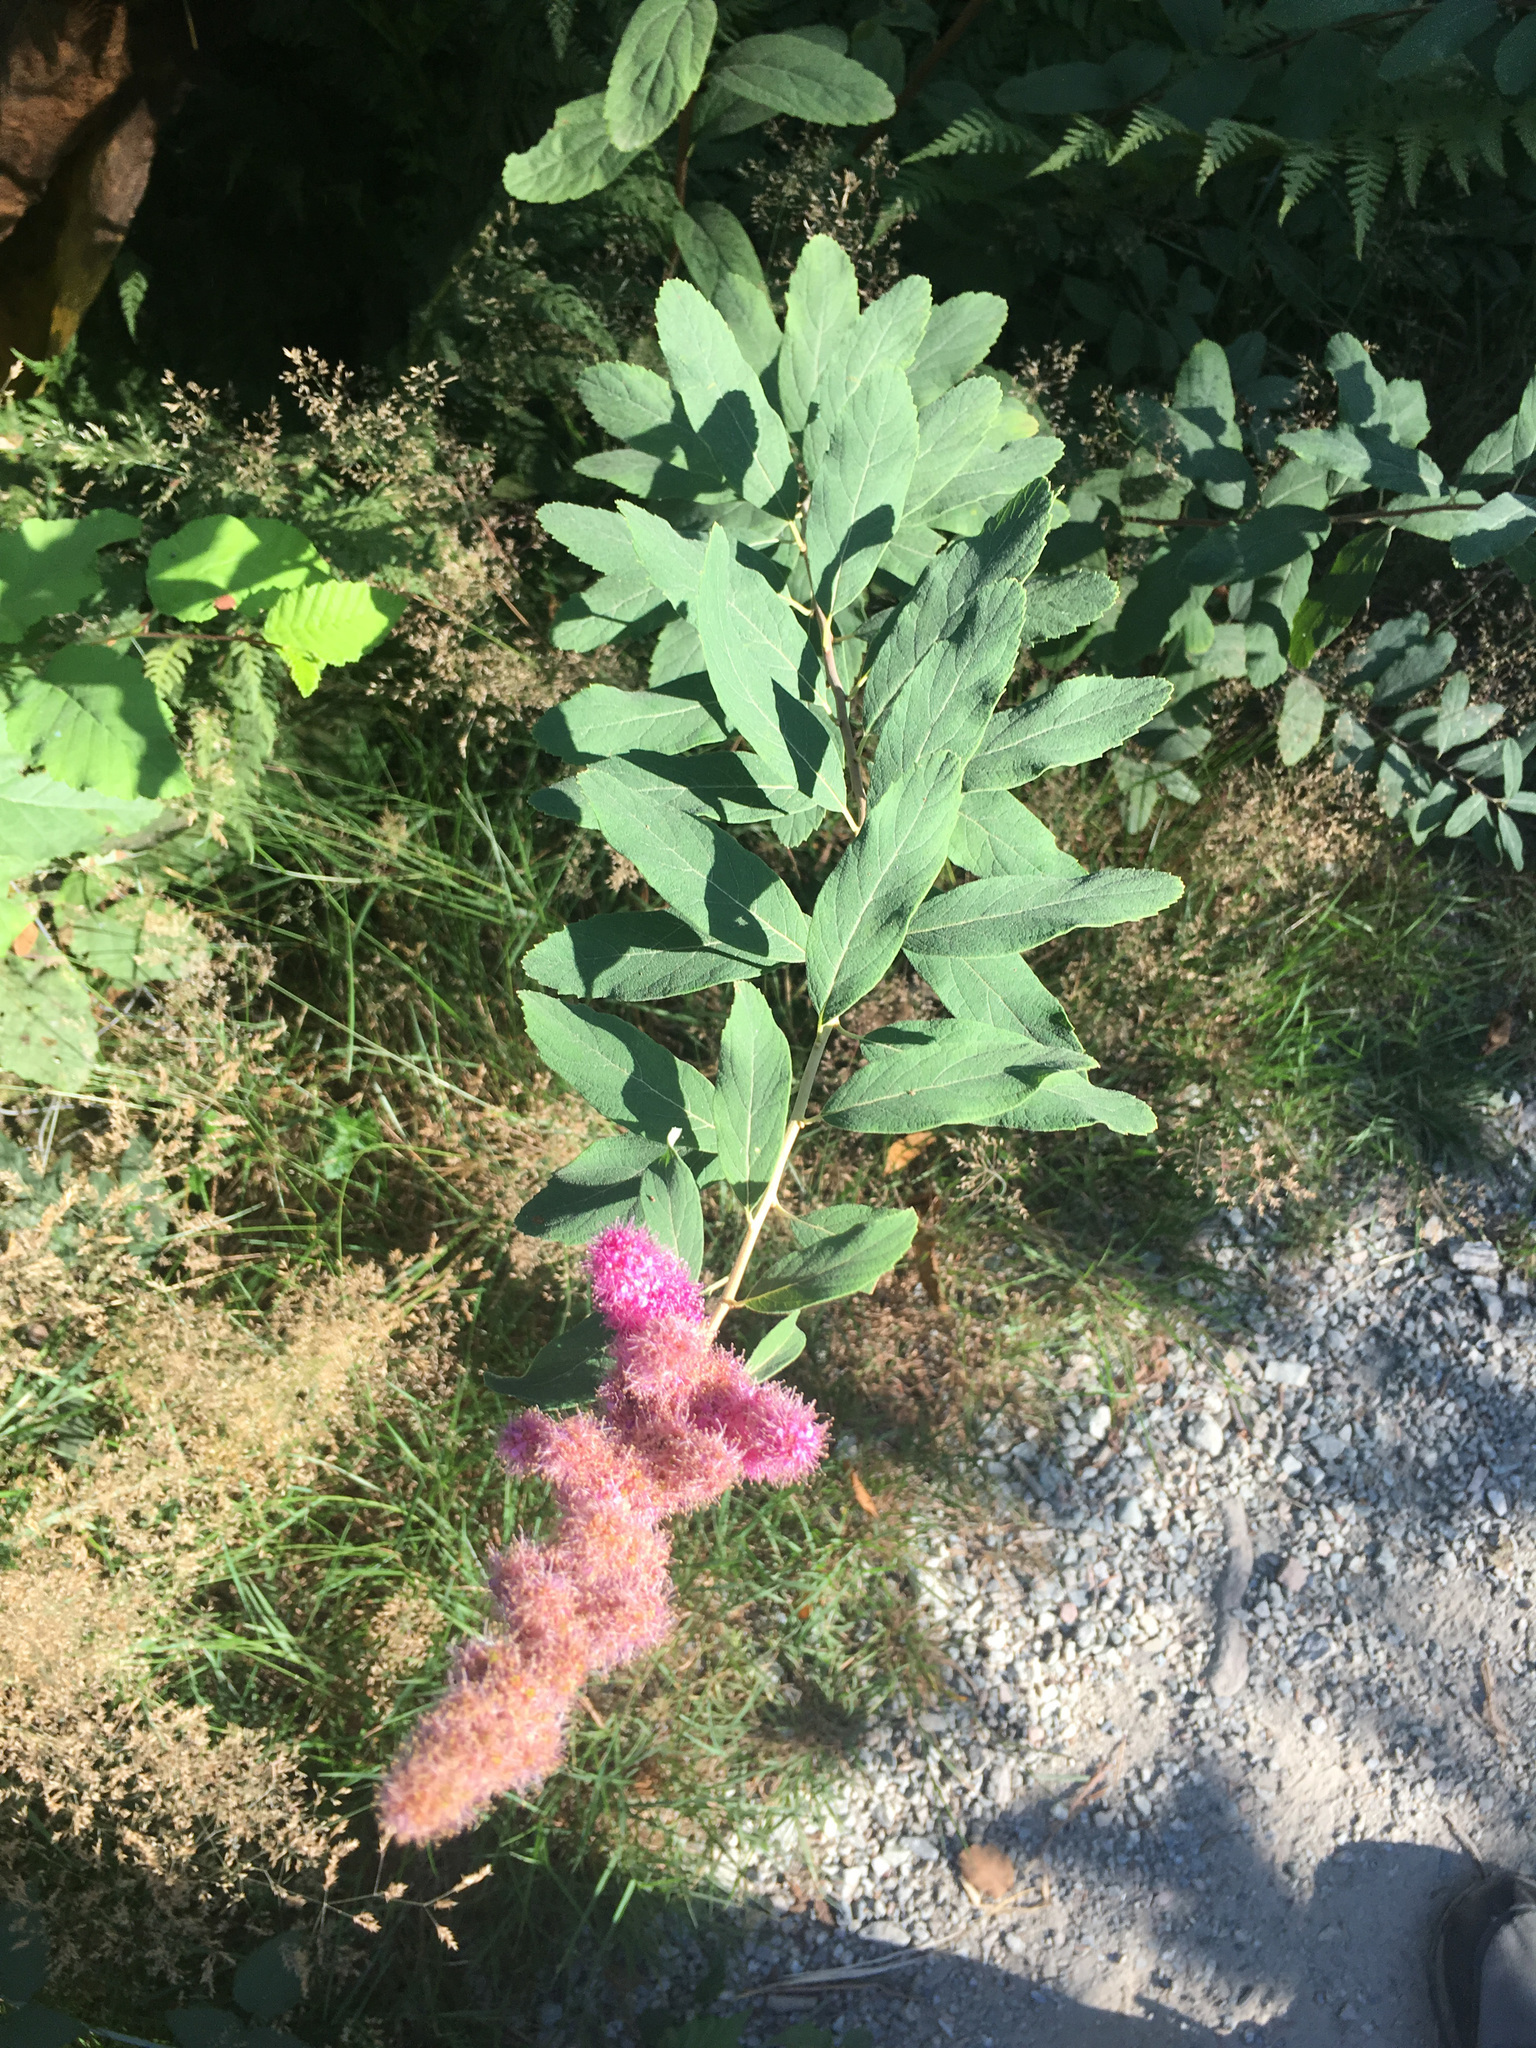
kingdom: Plantae
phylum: Tracheophyta
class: Magnoliopsida
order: Rosales
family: Rosaceae
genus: Spiraea
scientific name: Spiraea douglasii
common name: Steeplebush
